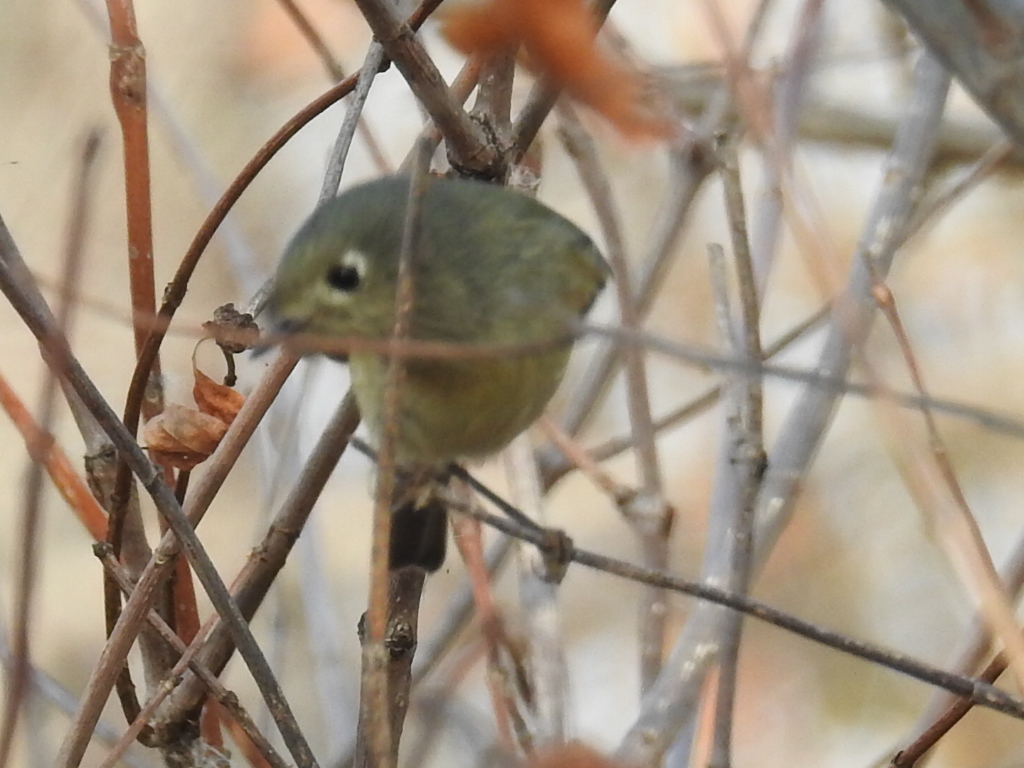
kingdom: Animalia
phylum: Chordata
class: Aves
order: Passeriformes
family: Regulidae
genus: Regulus
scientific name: Regulus calendula
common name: Ruby-crowned kinglet
